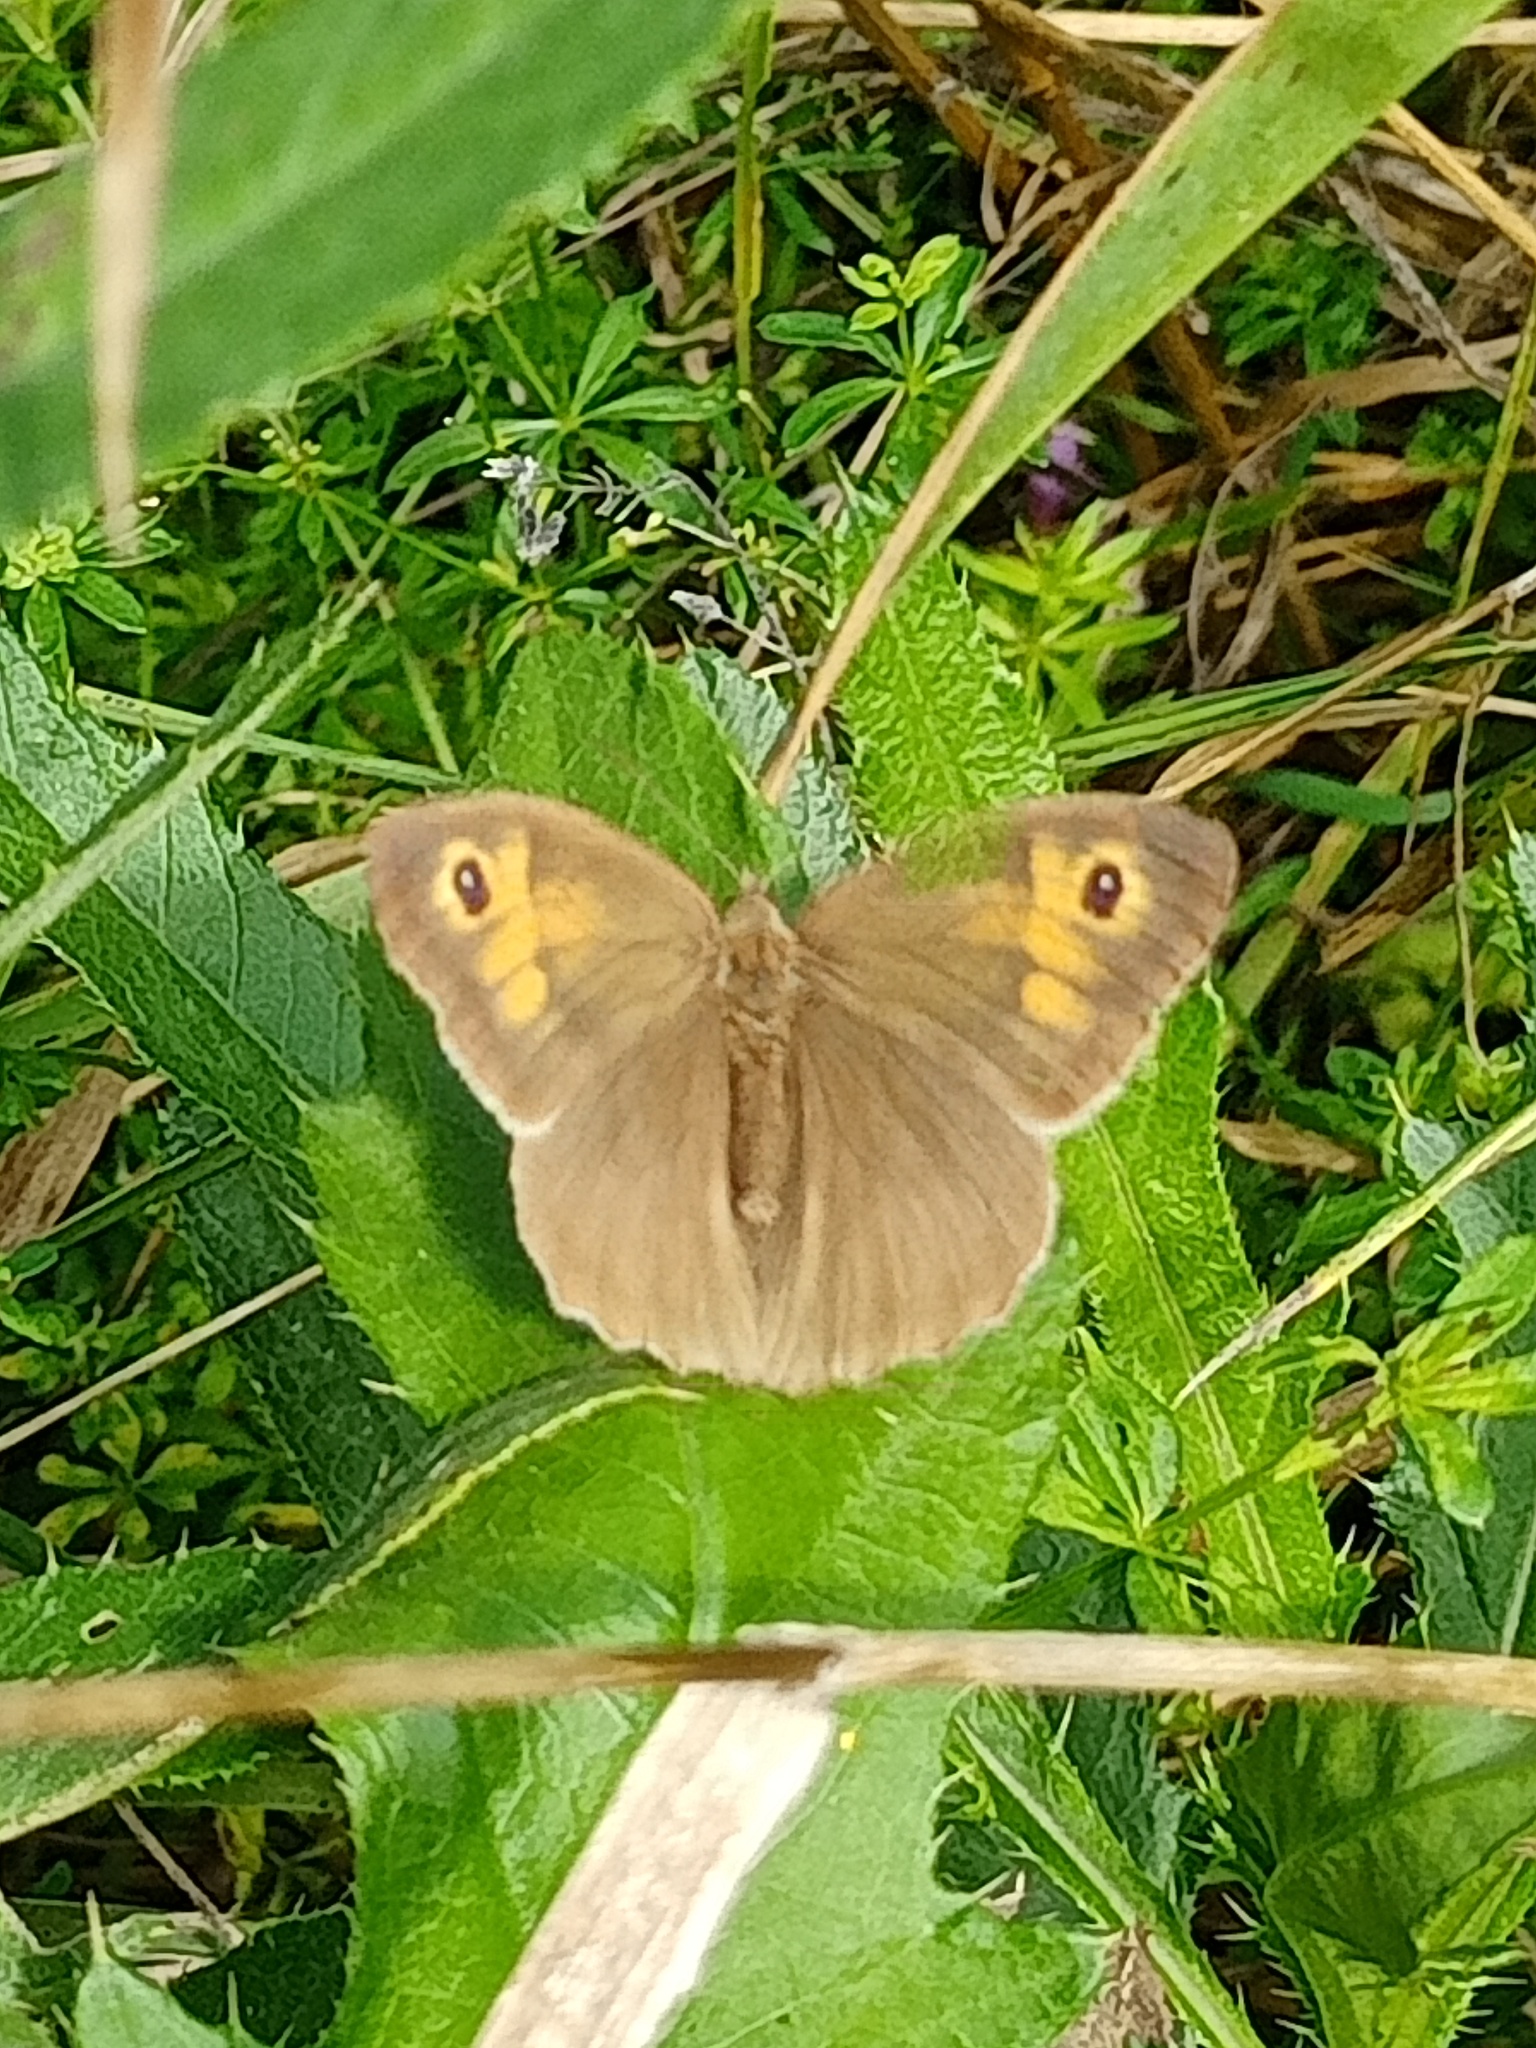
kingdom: Animalia
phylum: Arthropoda
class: Insecta
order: Lepidoptera
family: Nymphalidae
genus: Maniola
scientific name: Maniola jurtina
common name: Meadow brown
